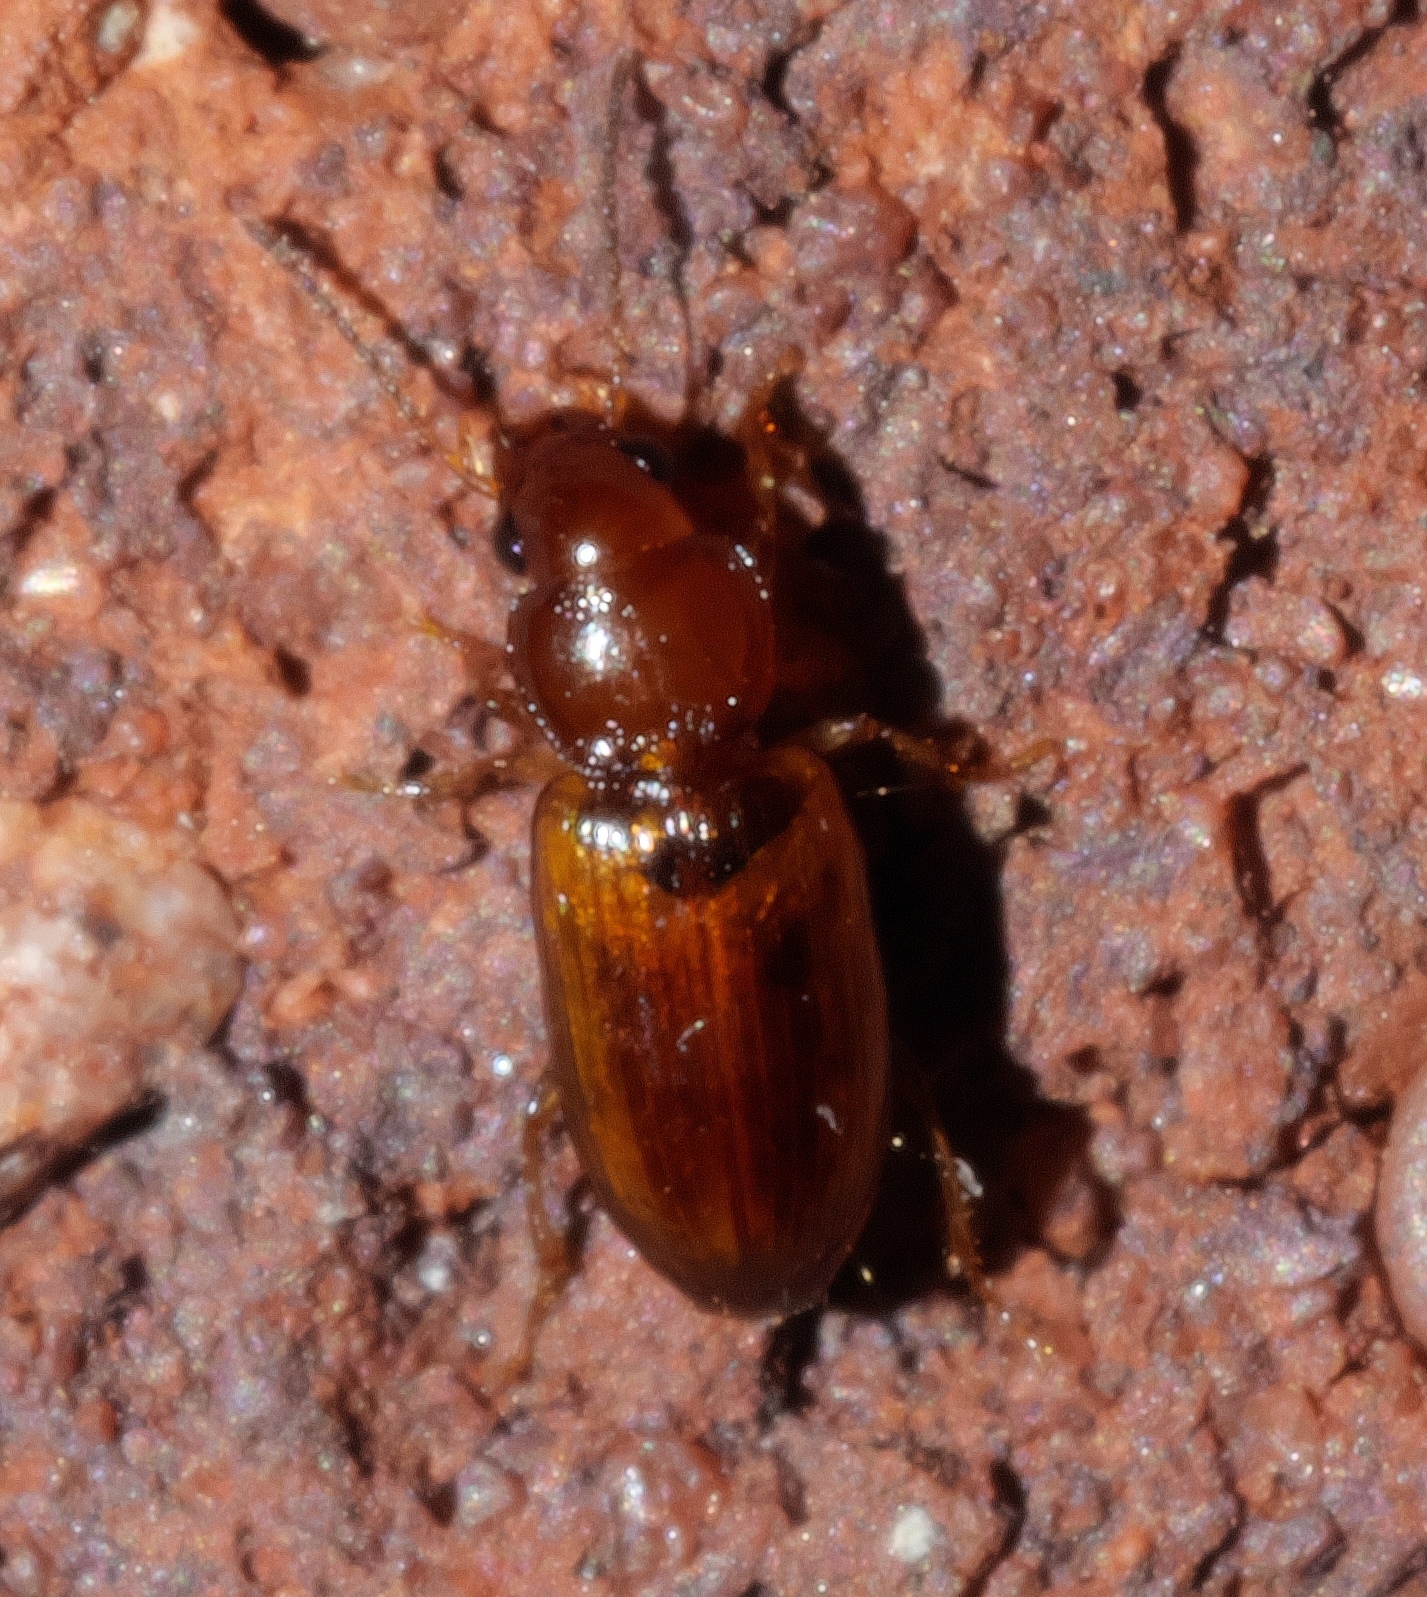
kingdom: Animalia
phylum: Arthropoda
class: Insecta
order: Coleoptera
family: Carabidae
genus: Acupalpus
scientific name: Acupalpus testaceus
